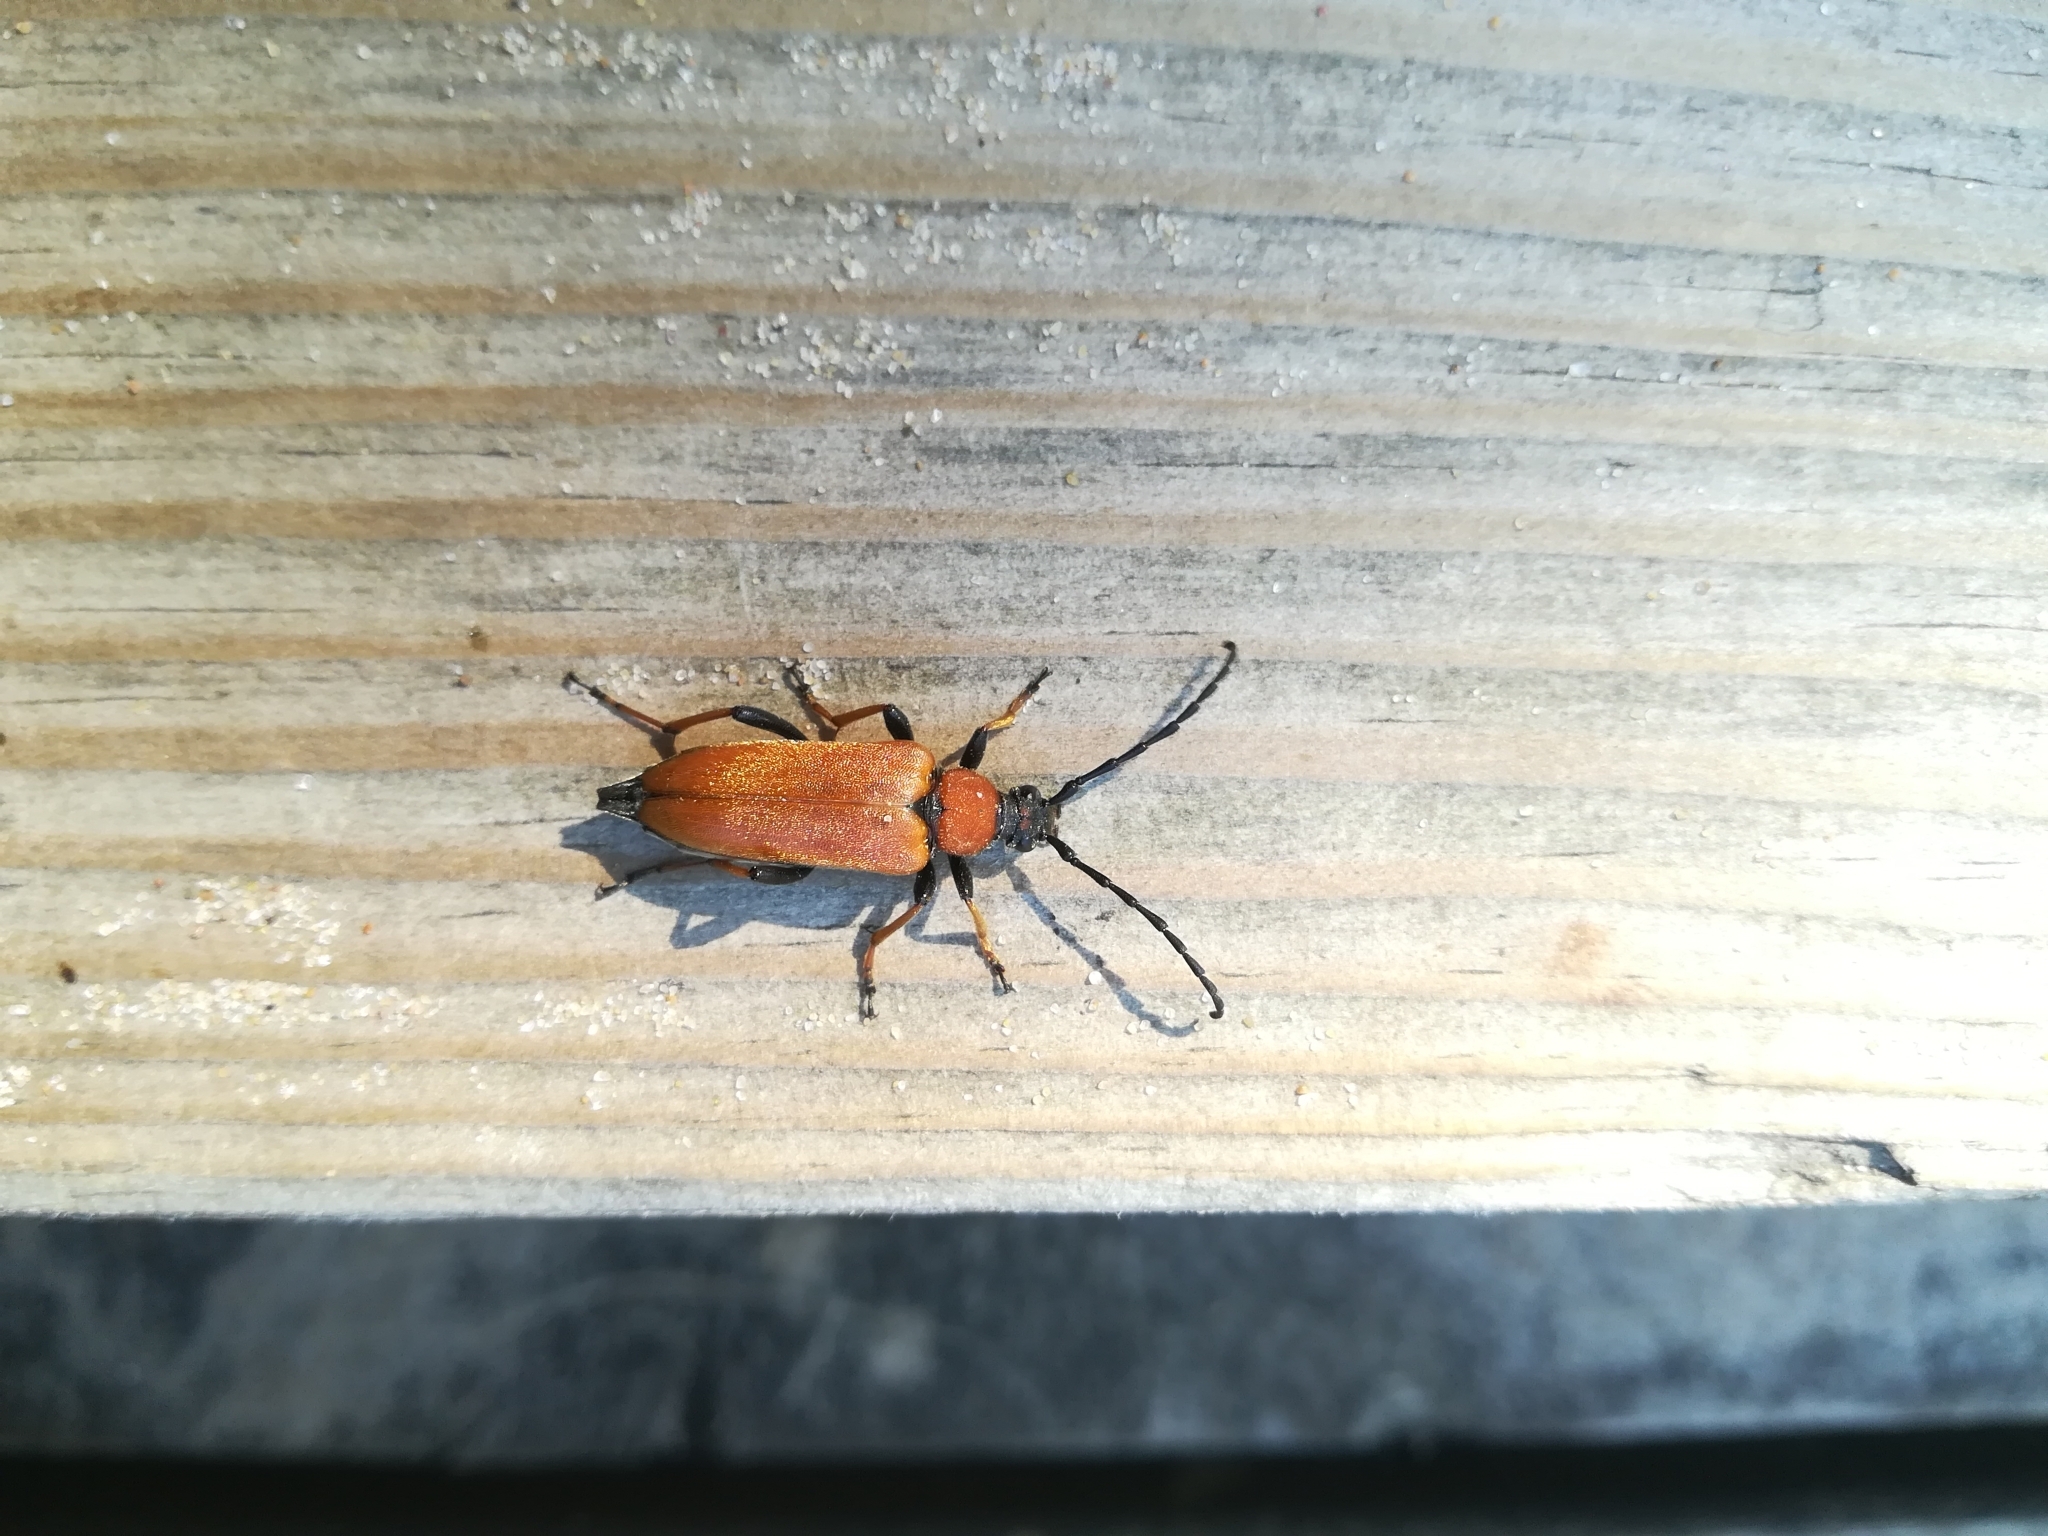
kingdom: Animalia
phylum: Arthropoda
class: Insecta
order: Coleoptera
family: Cerambycidae
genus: Stictoleptura
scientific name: Stictoleptura rubra
